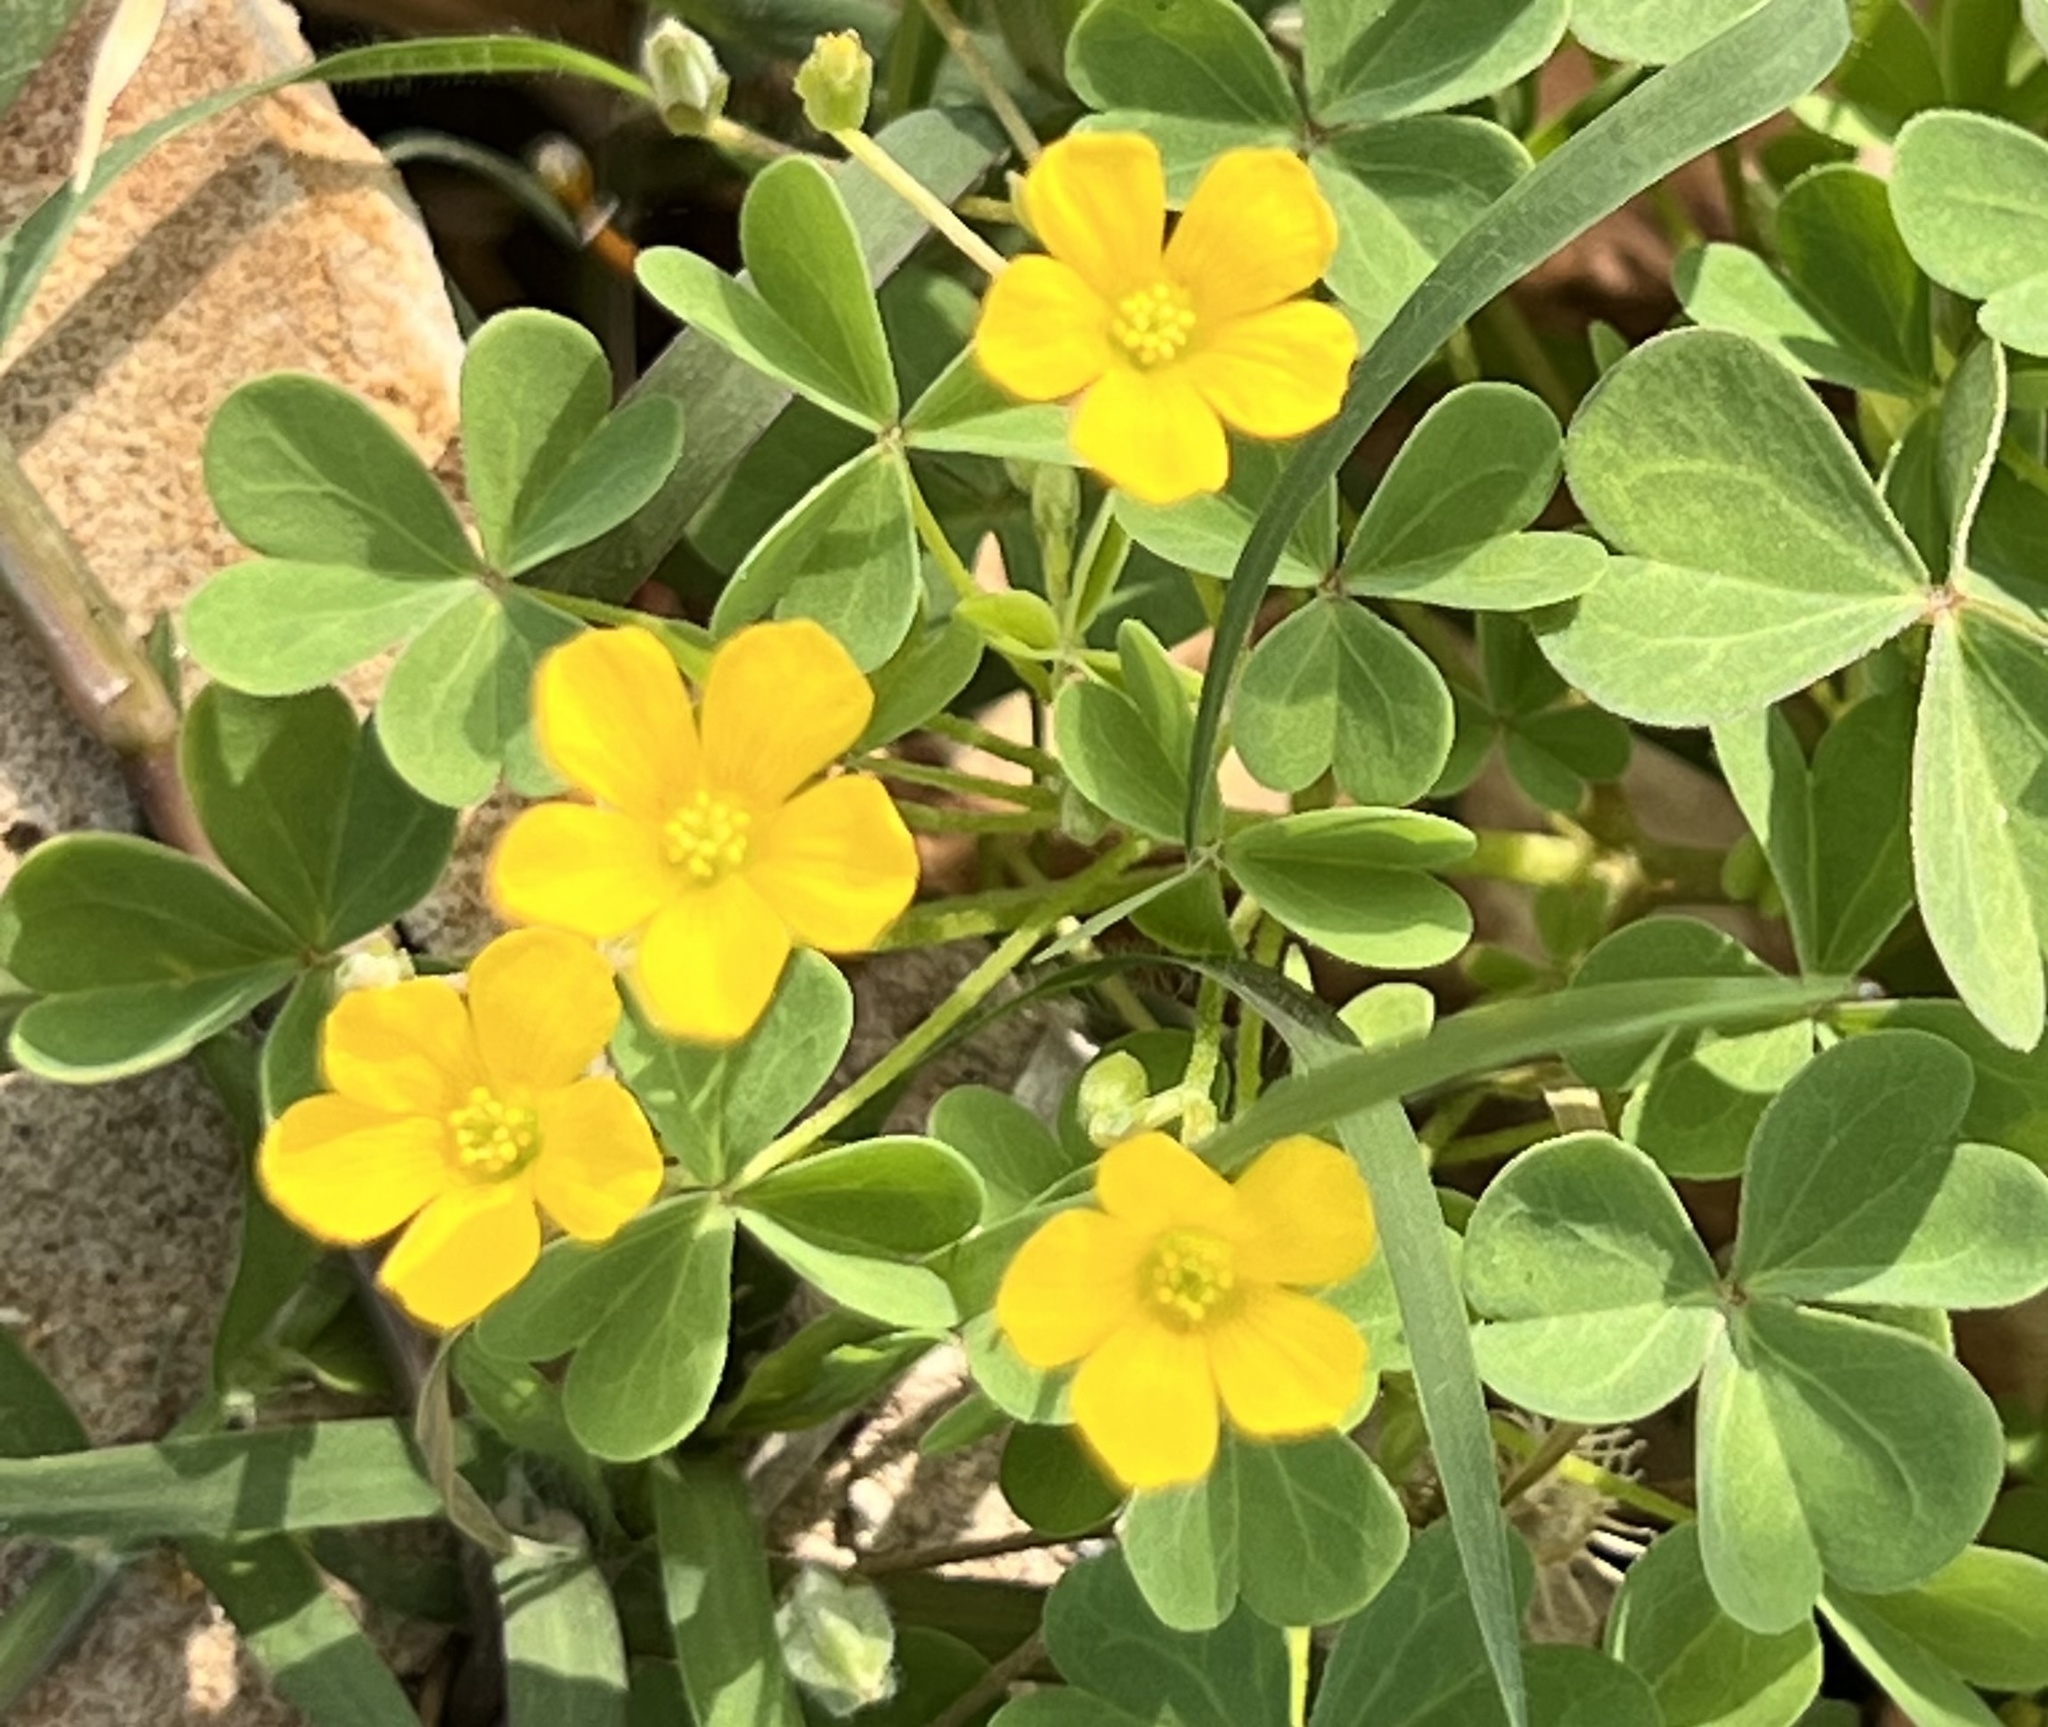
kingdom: Plantae
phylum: Tracheophyta
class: Magnoliopsida
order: Oxalidales
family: Oxalidaceae
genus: Oxalis
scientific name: Oxalis dillenii
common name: Sussex yellow-sorrel
